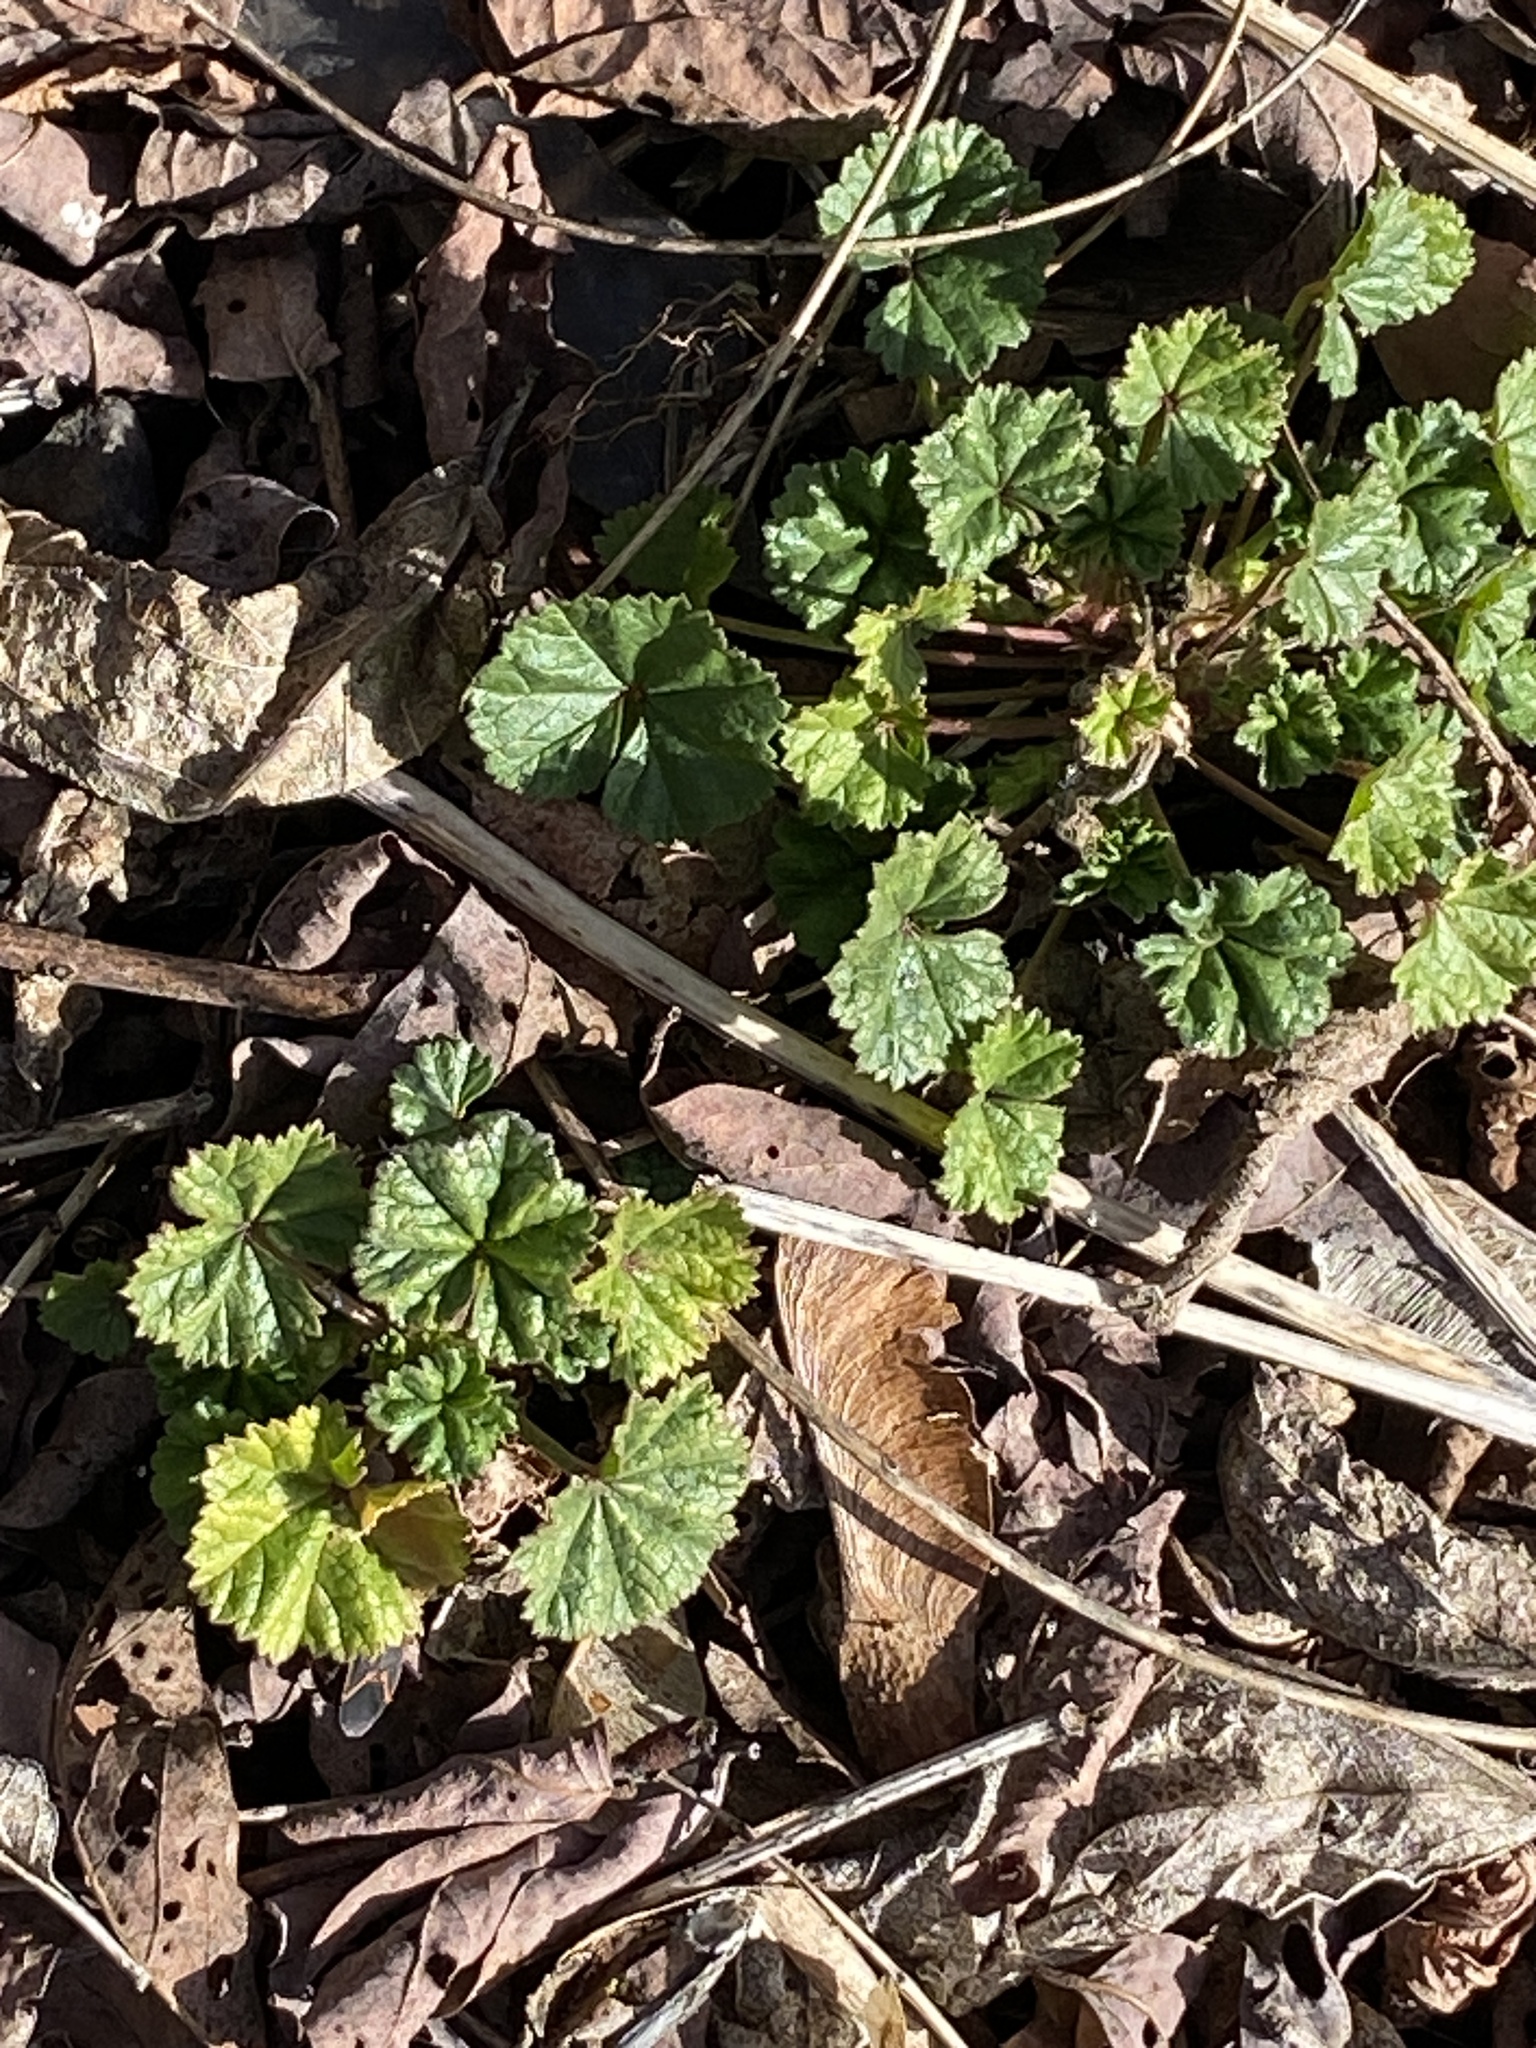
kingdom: Plantae
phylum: Tracheophyta
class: Magnoliopsida
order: Malvales
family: Malvaceae
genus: Malva
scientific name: Malva neglecta
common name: Common mallow
